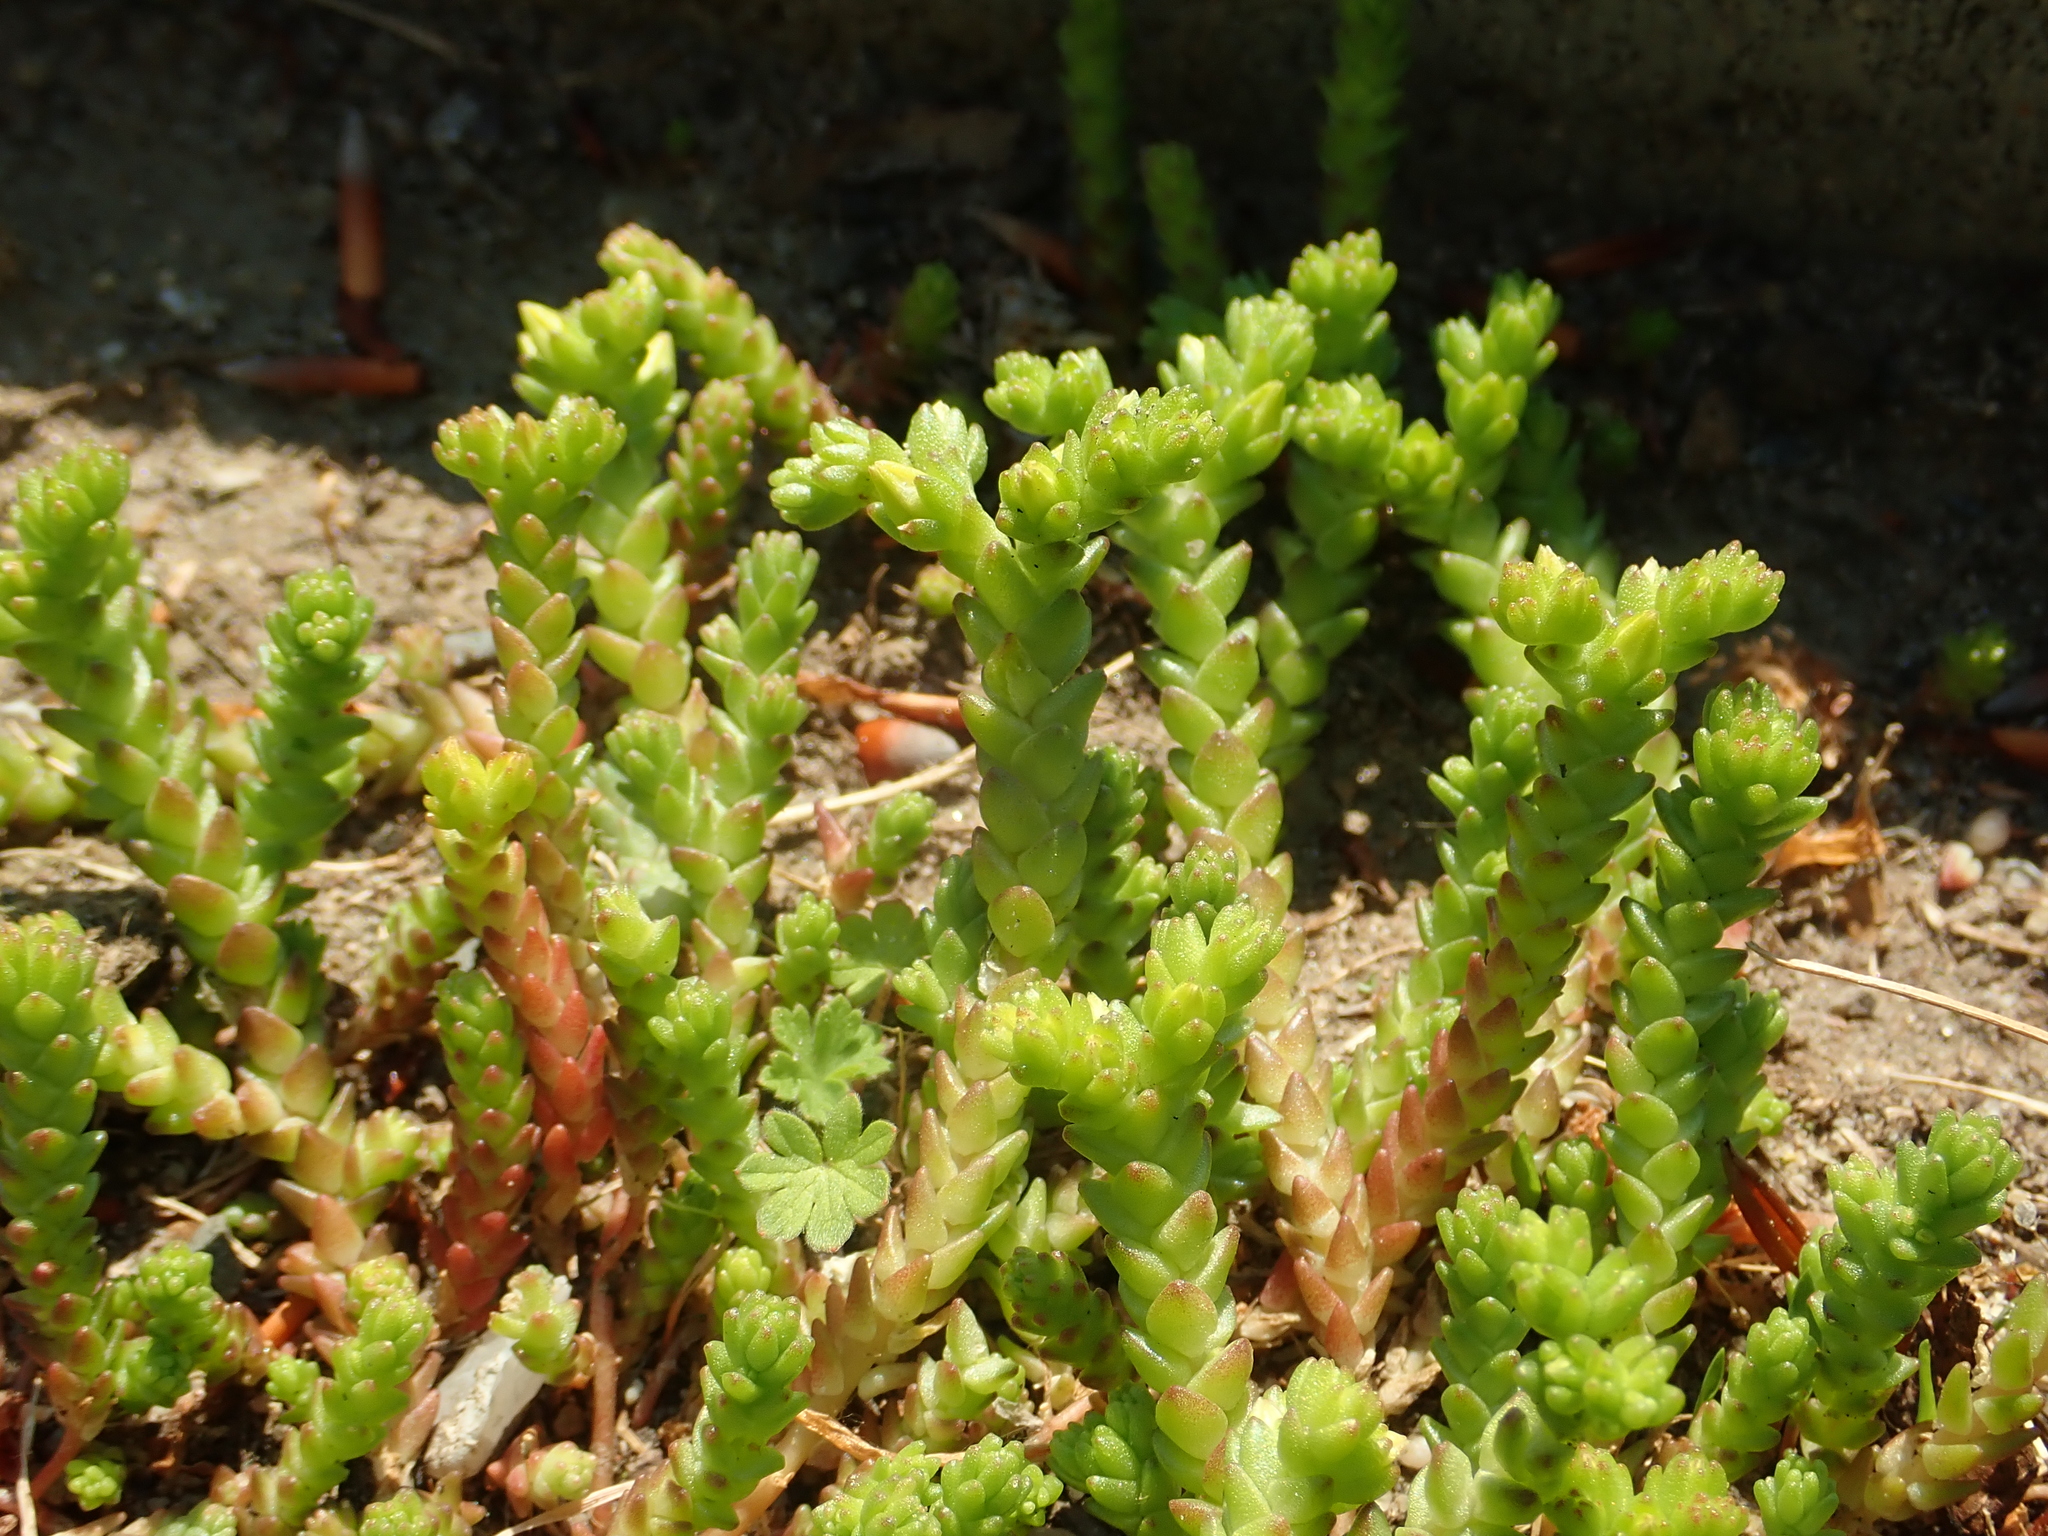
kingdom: Plantae
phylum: Tracheophyta
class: Magnoliopsida
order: Saxifragales
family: Crassulaceae
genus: Sedum
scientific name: Sedum acre
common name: Biting stonecrop
